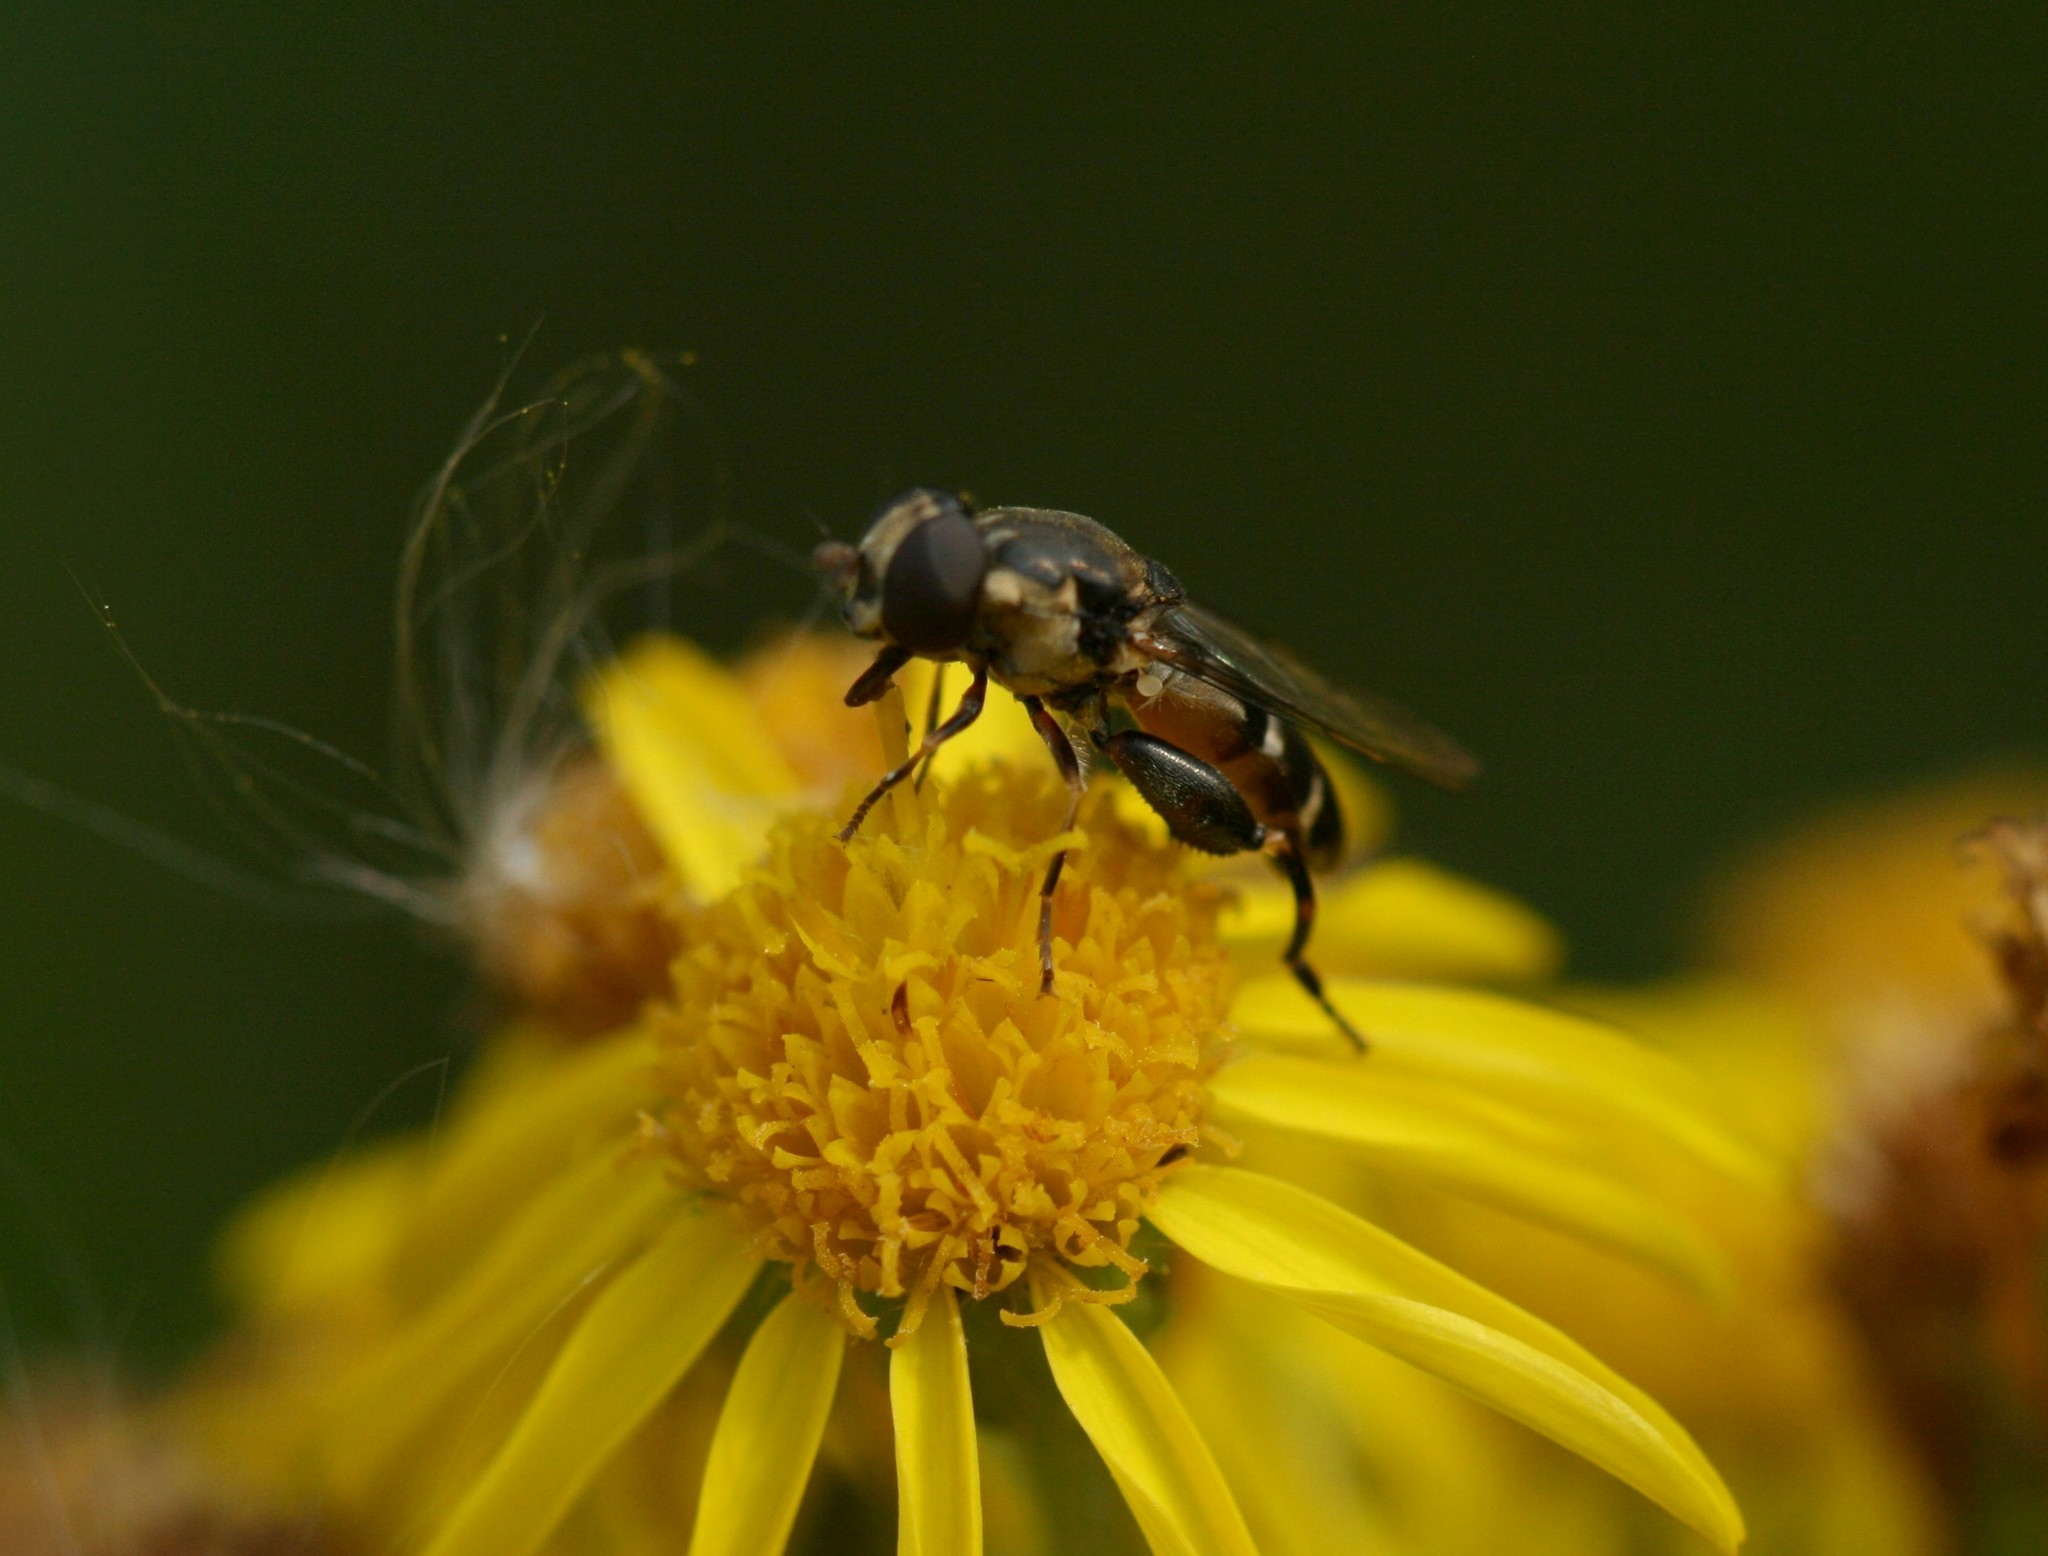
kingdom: Animalia
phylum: Arthropoda
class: Insecta
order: Diptera
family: Syrphidae
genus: Syritta
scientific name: Syritta pipiens
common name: Hover fly
